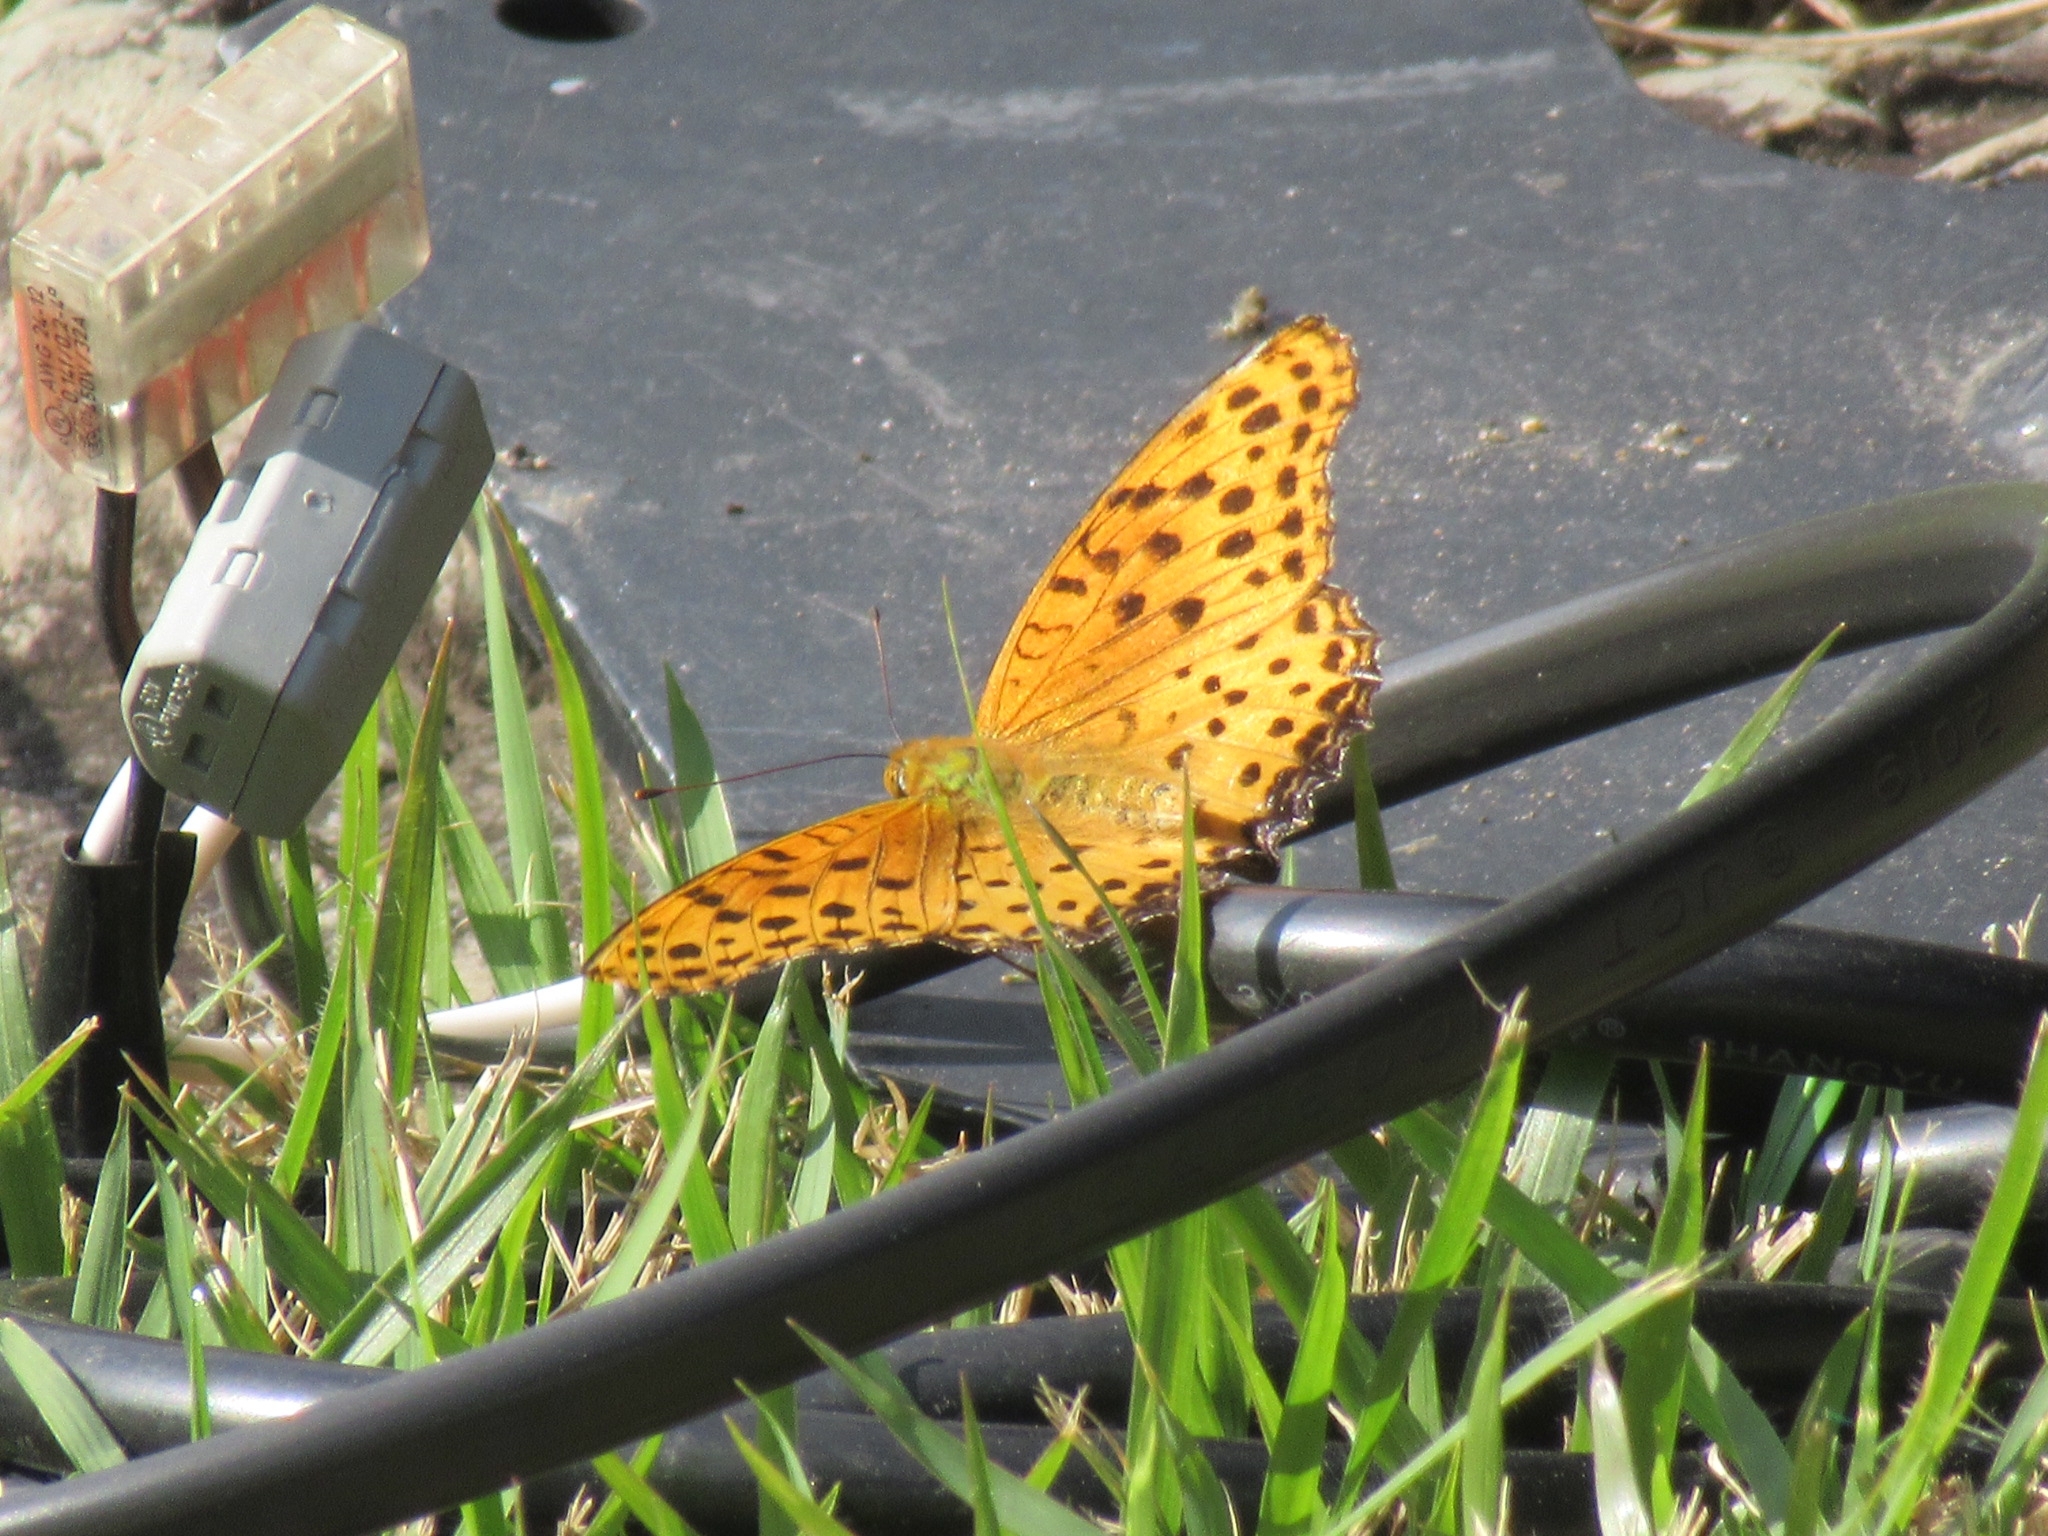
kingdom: Animalia
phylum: Arthropoda
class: Insecta
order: Lepidoptera
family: Nymphalidae
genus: Argynnis
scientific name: Argynnis hyperbius
